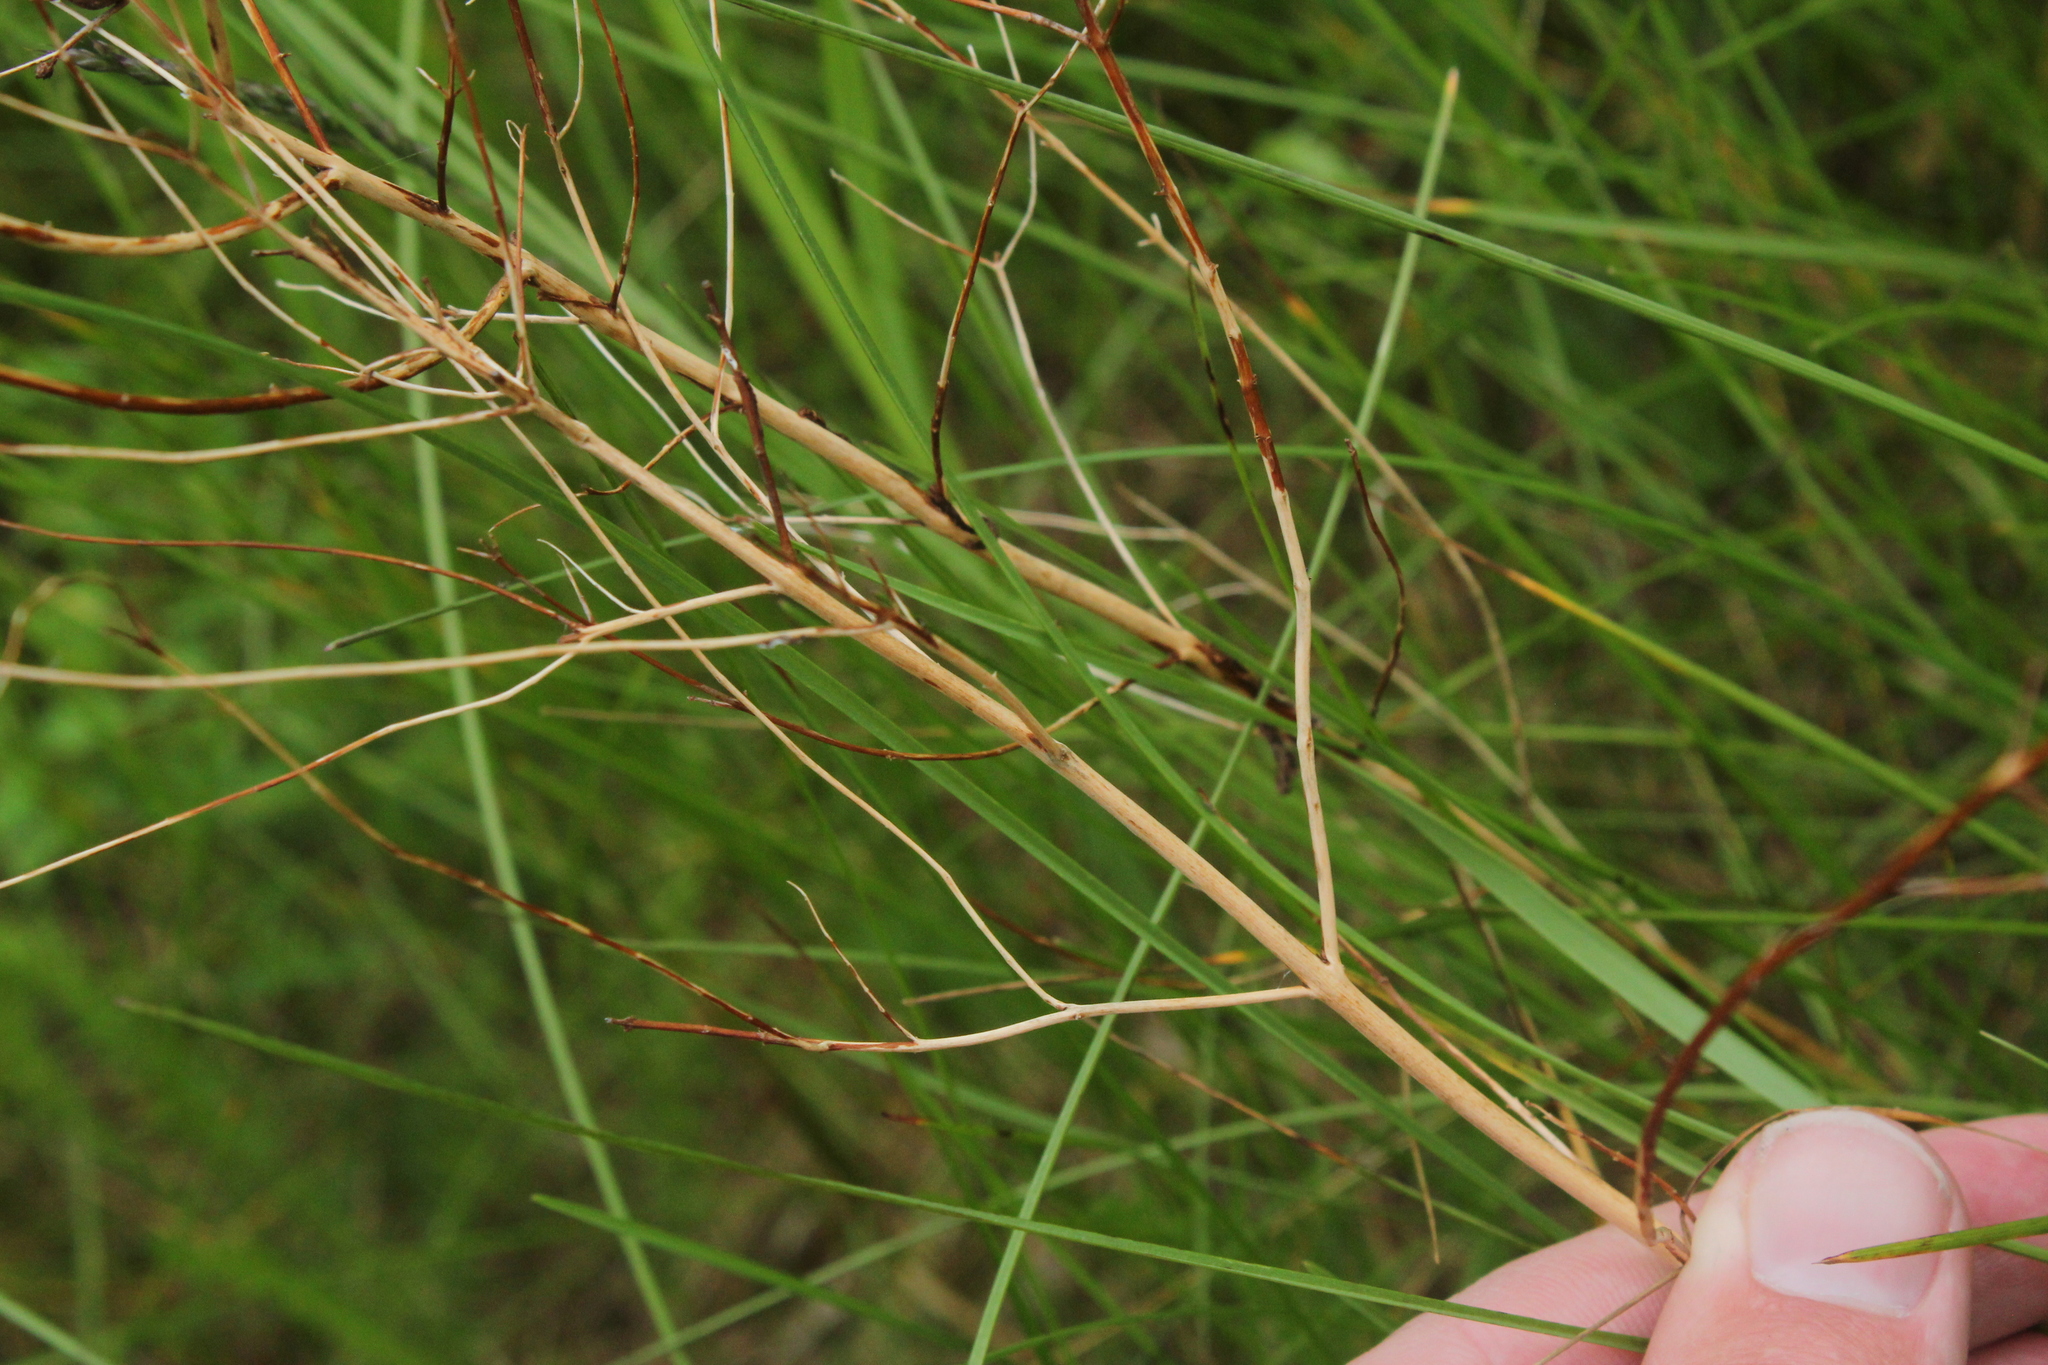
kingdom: Plantae
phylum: Tracheophyta
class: Magnoliopsida
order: Lamiales
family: Plantaginaceae
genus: Penstemon
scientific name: Penstemon digitalis
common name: Foxglove beardtongue
